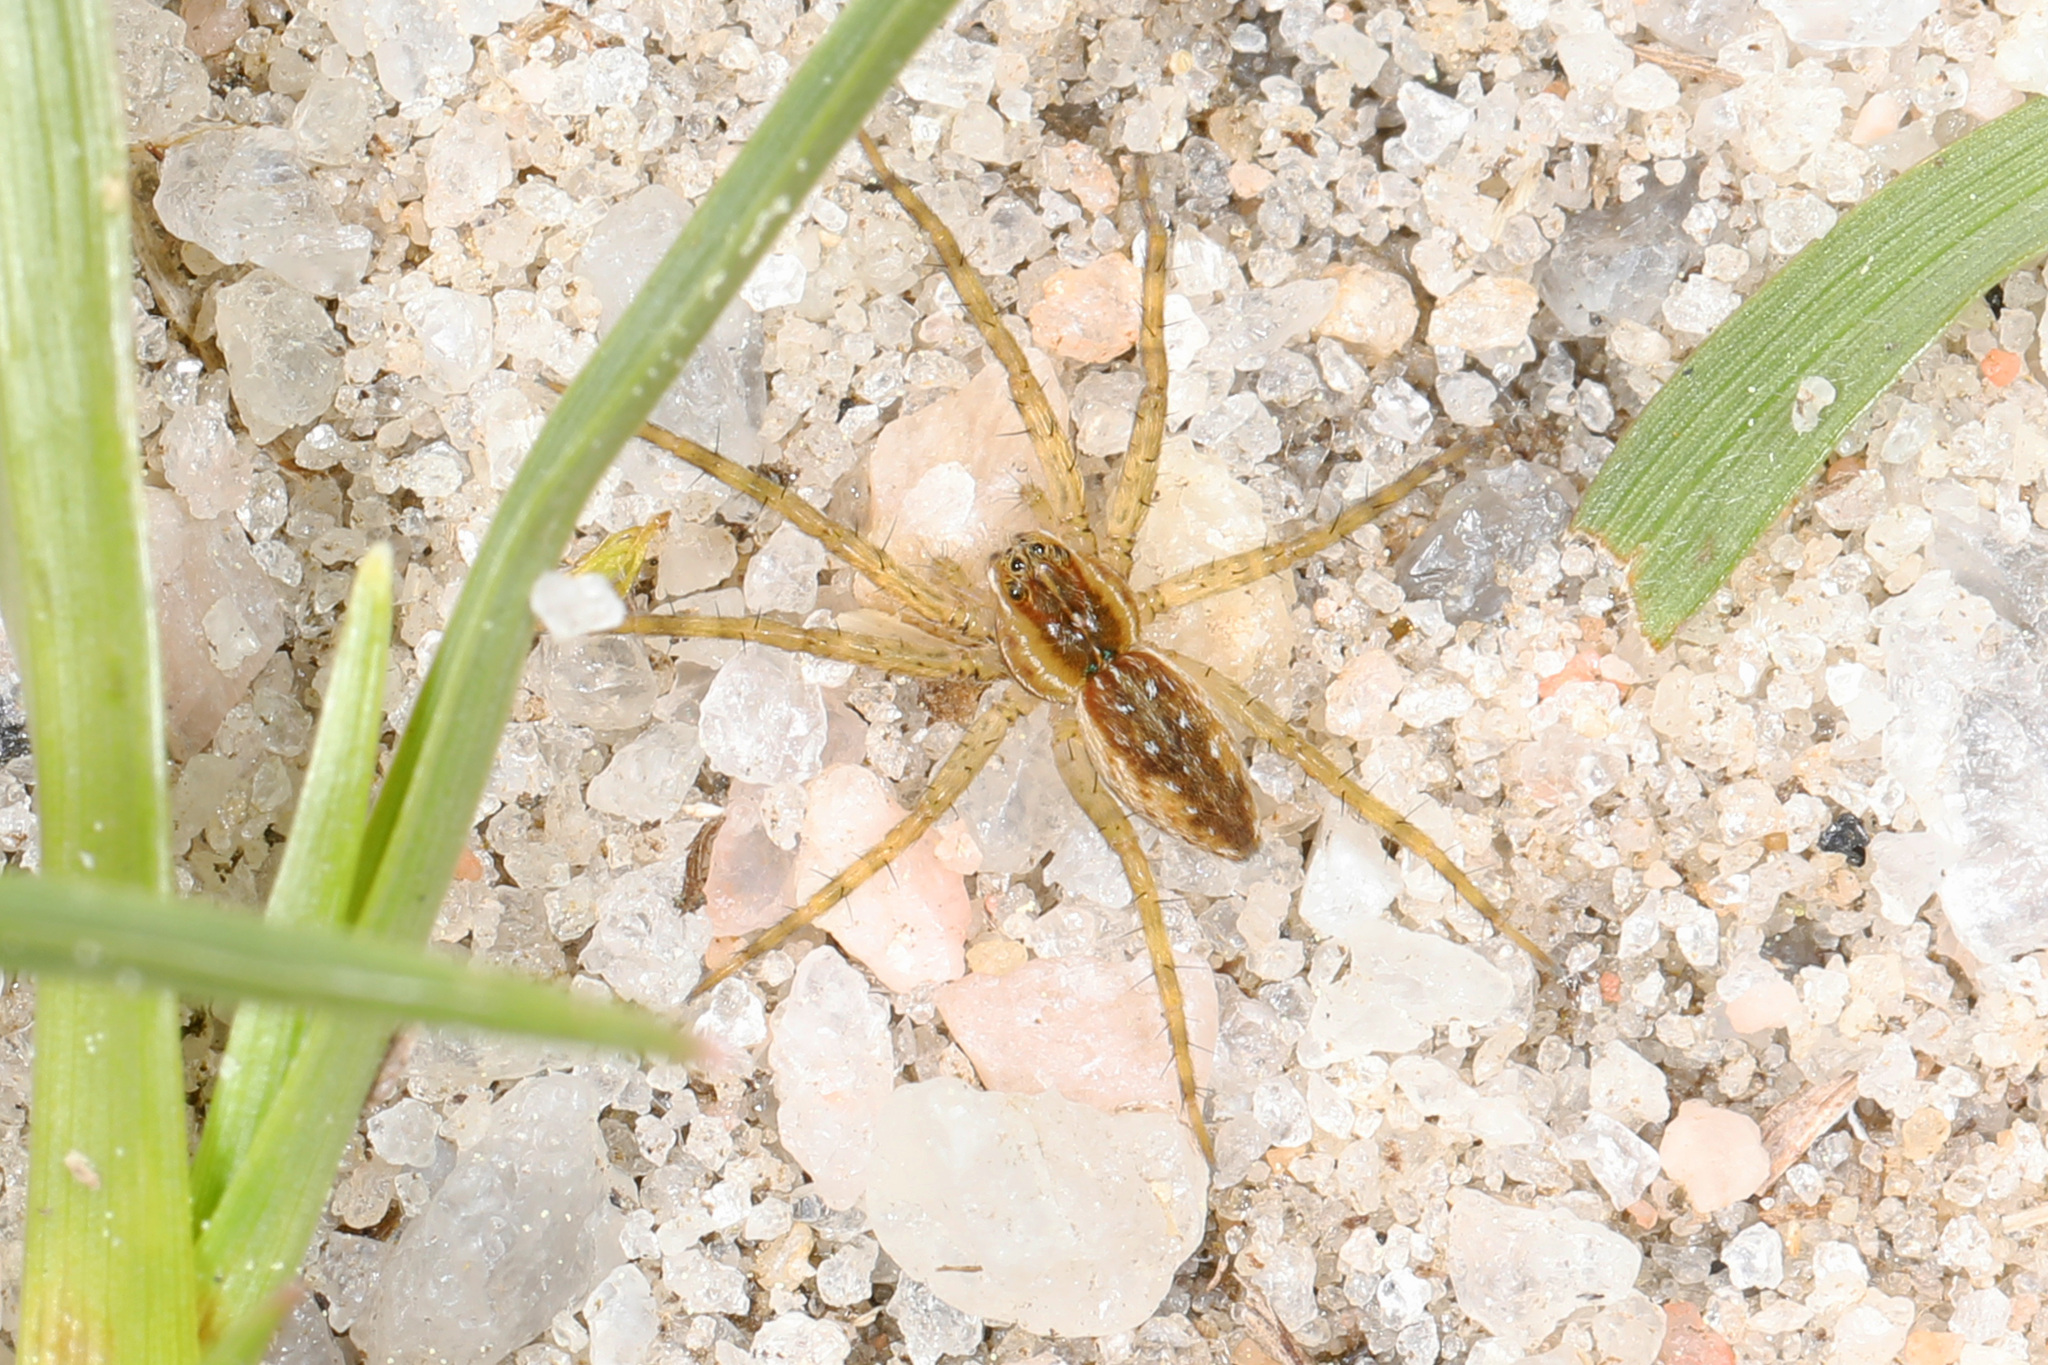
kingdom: Animalia
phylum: Arthropoda
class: Arachnida
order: Araneae
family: Pisauridae
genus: Dolomedes
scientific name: Dolomedes triton
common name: Six-spotted fishing spider
